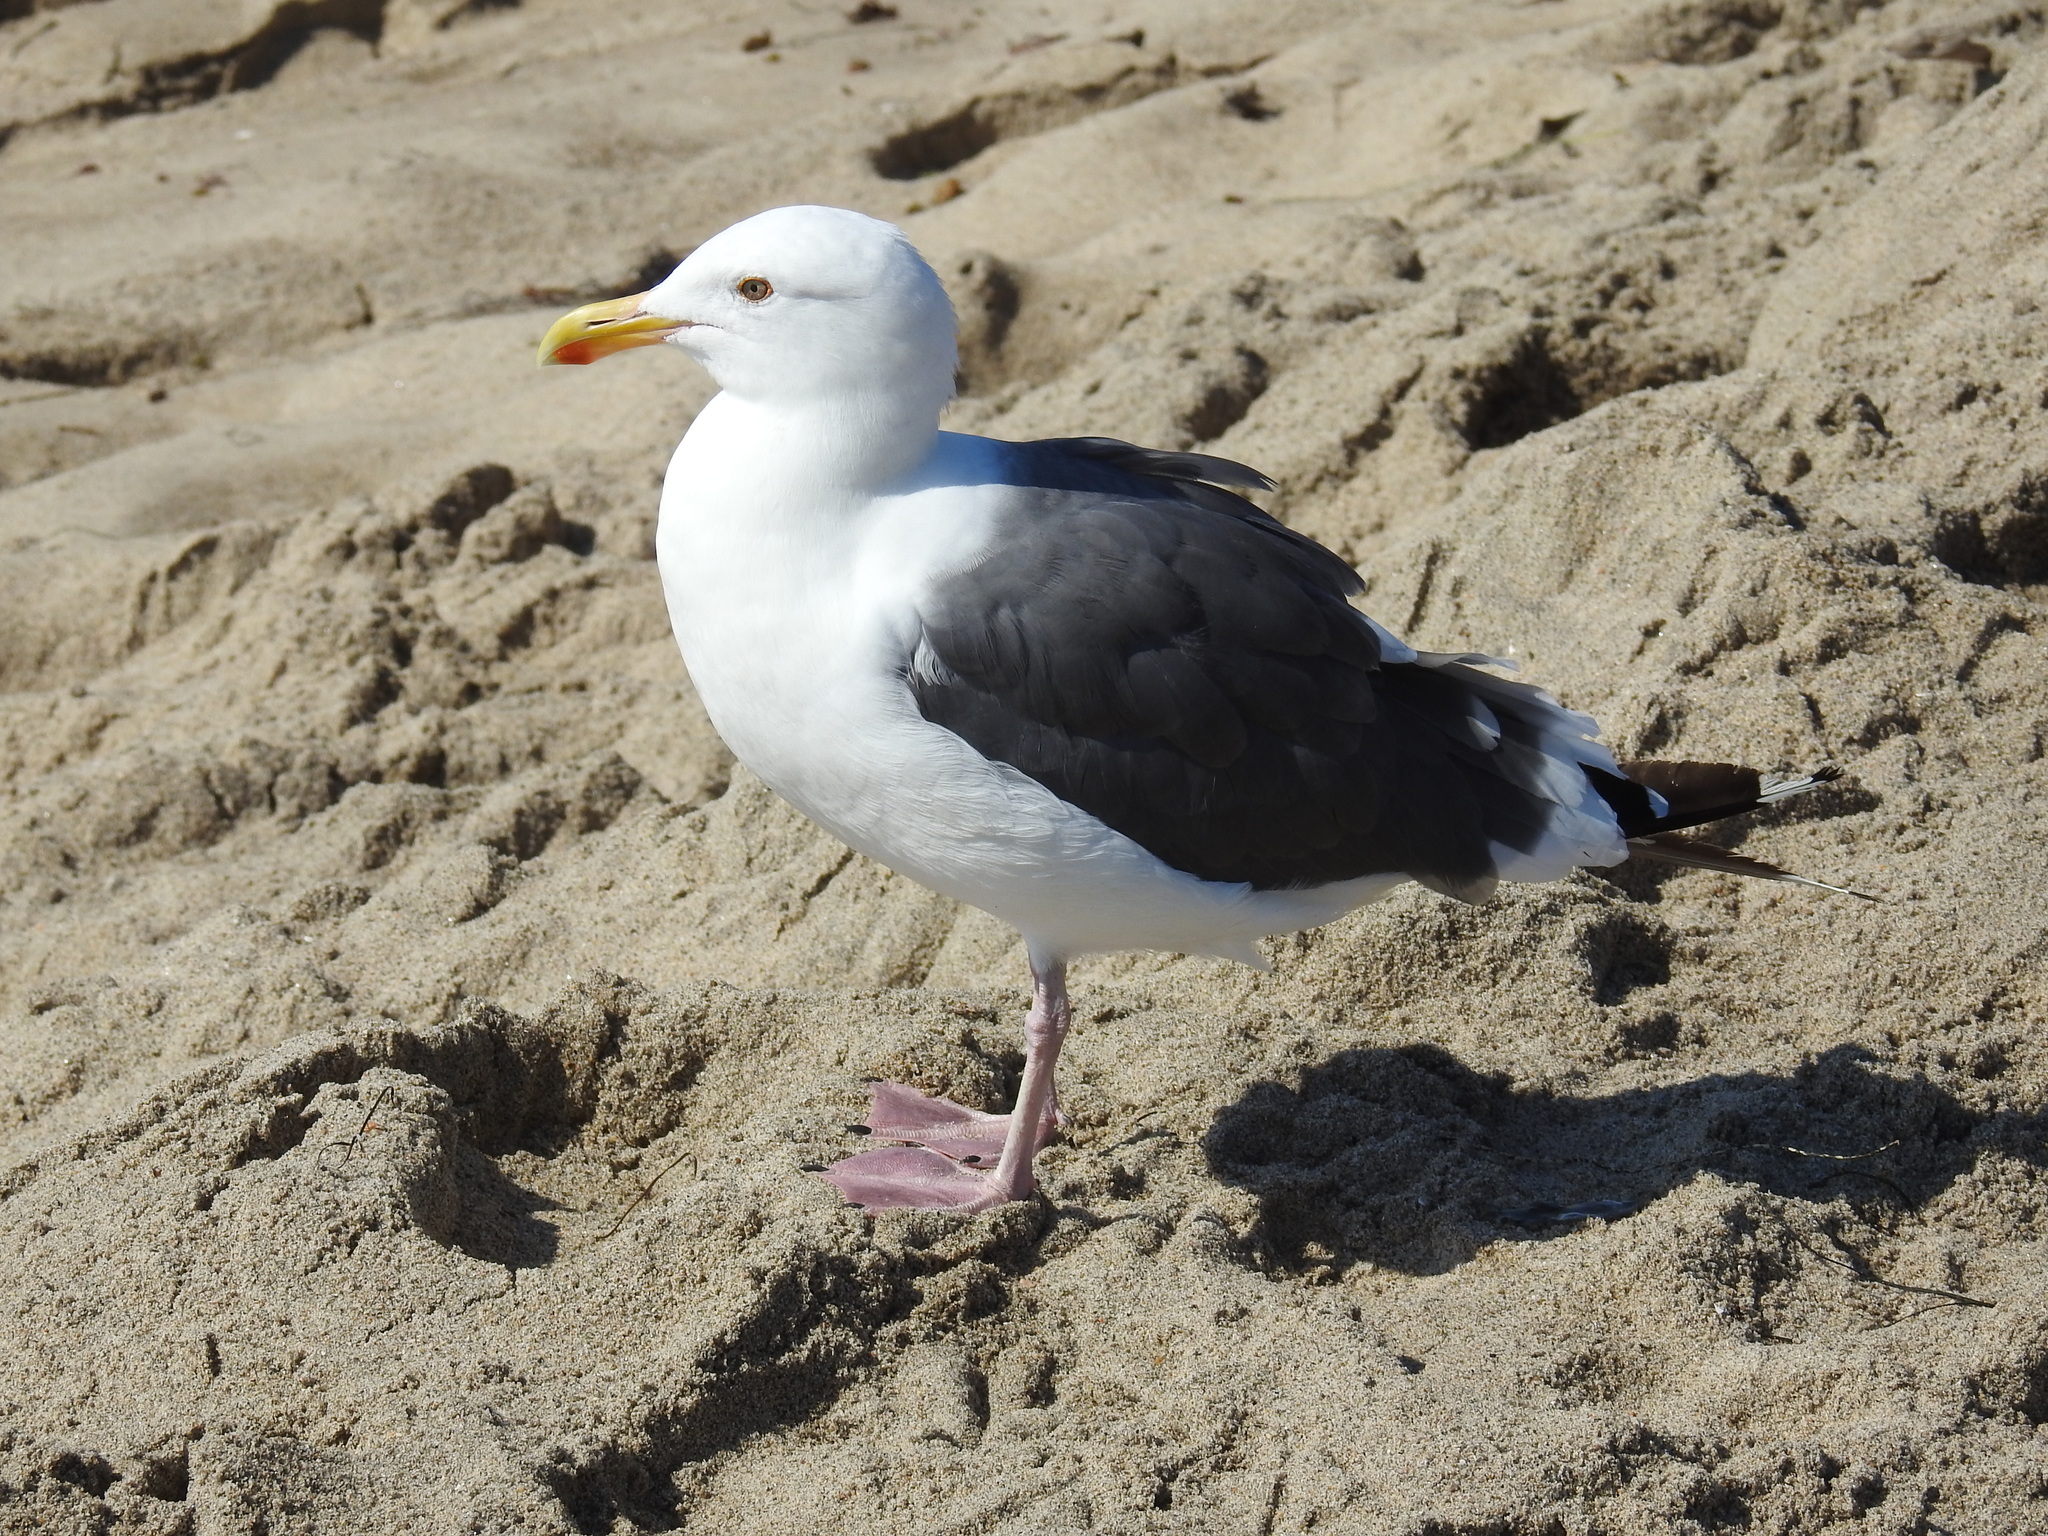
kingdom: Animalia
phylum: Chordata
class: Aves
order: Charadriiformes
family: Laridae
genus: Larus
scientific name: Larus occidentalis
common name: Western gull
